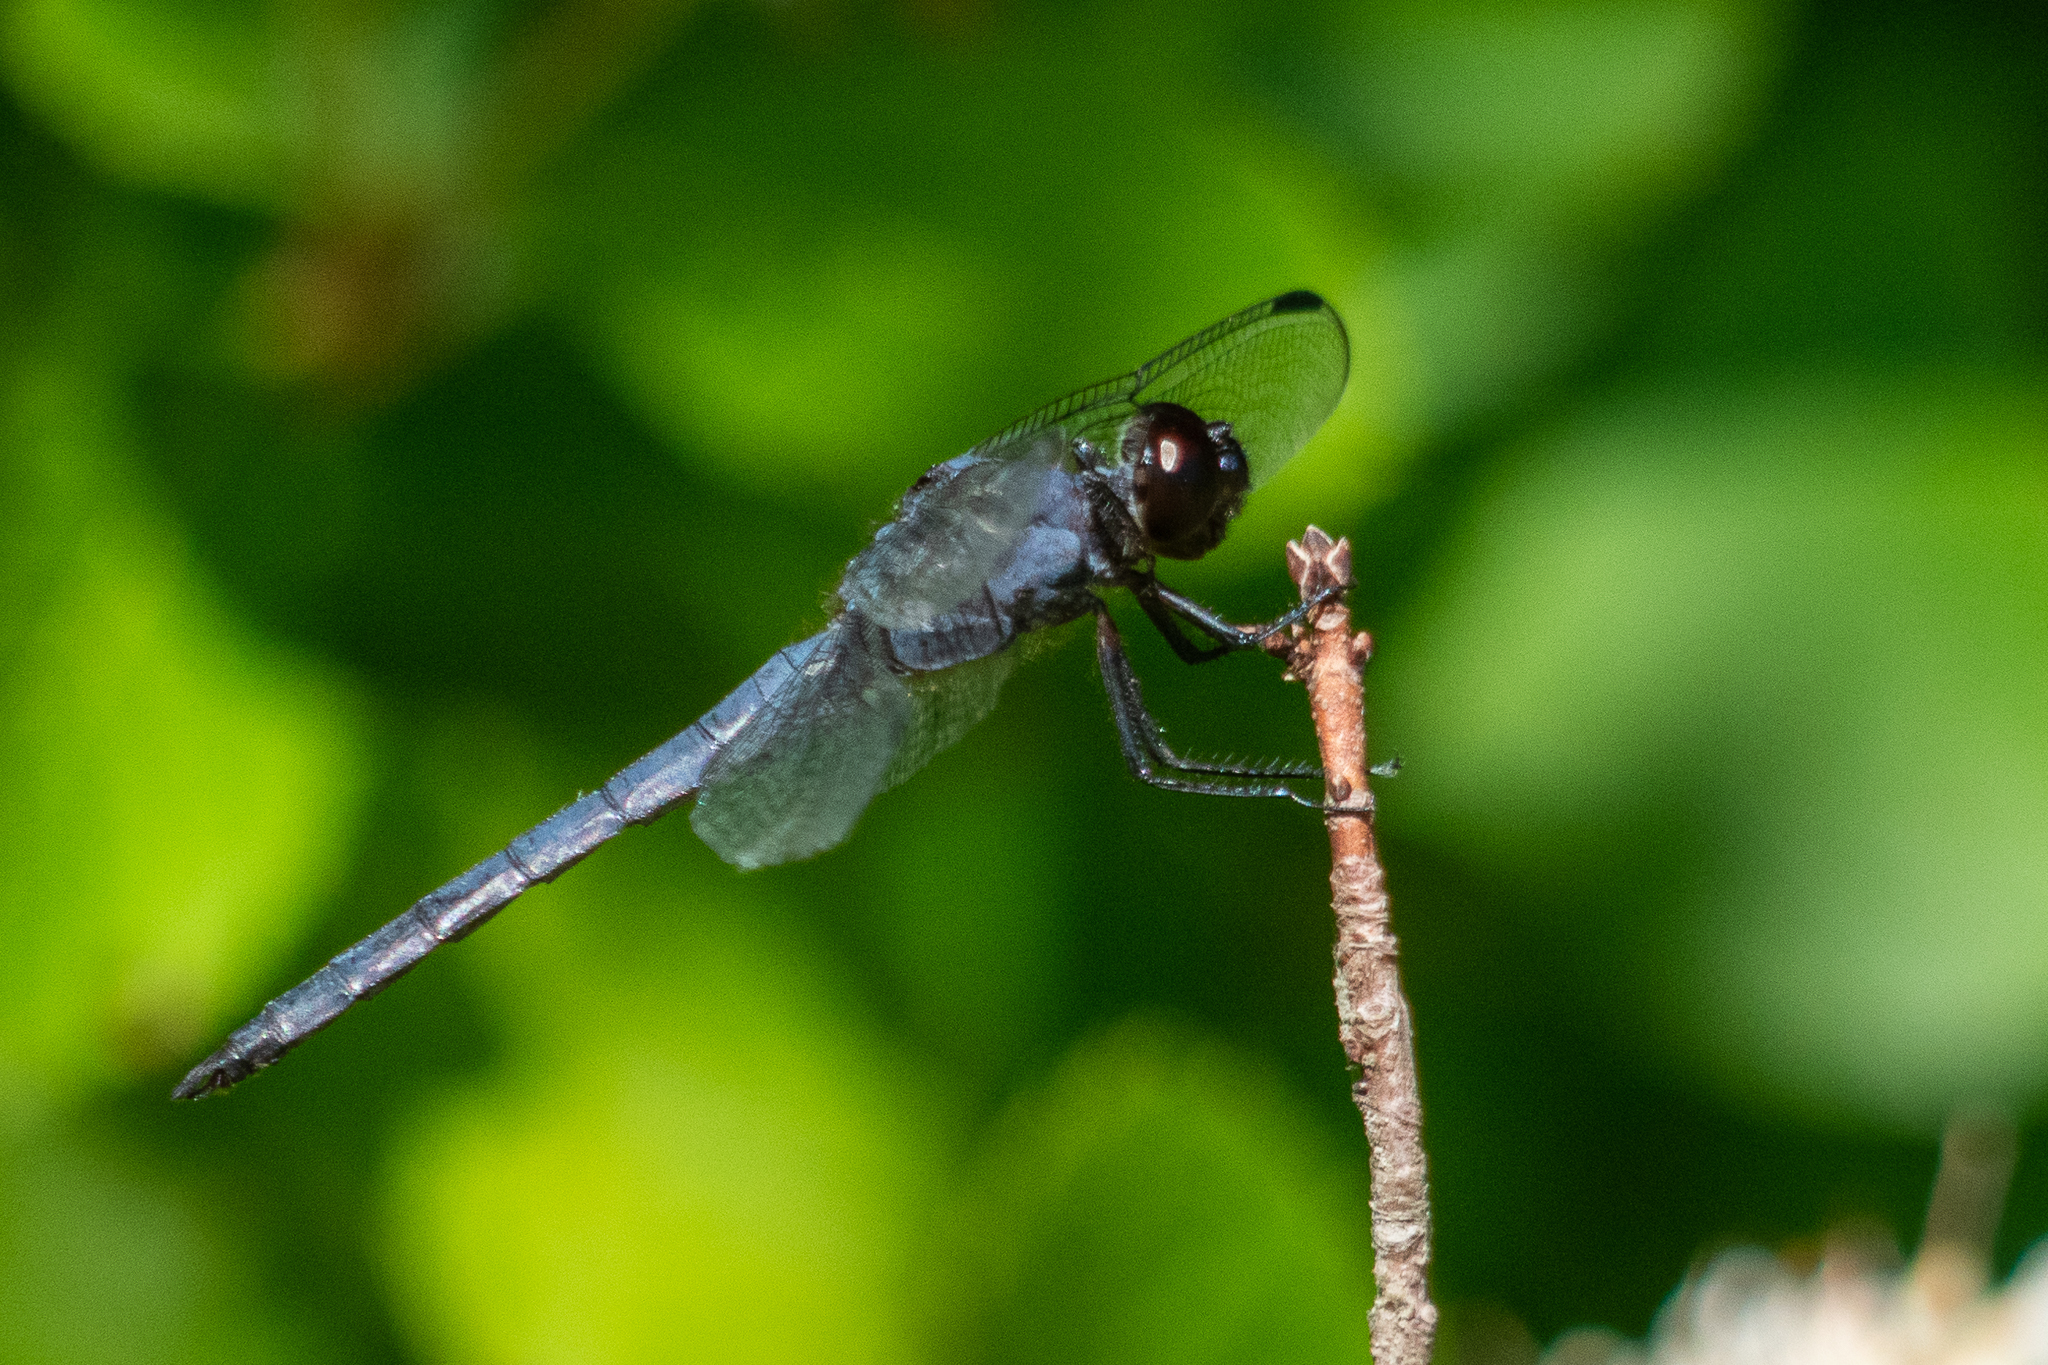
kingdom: Animalia
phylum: Arthropoda
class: Insecta
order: Odonata
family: Libellulidae
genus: Libellula
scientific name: Libellula incesta
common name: Slaty skimmer
